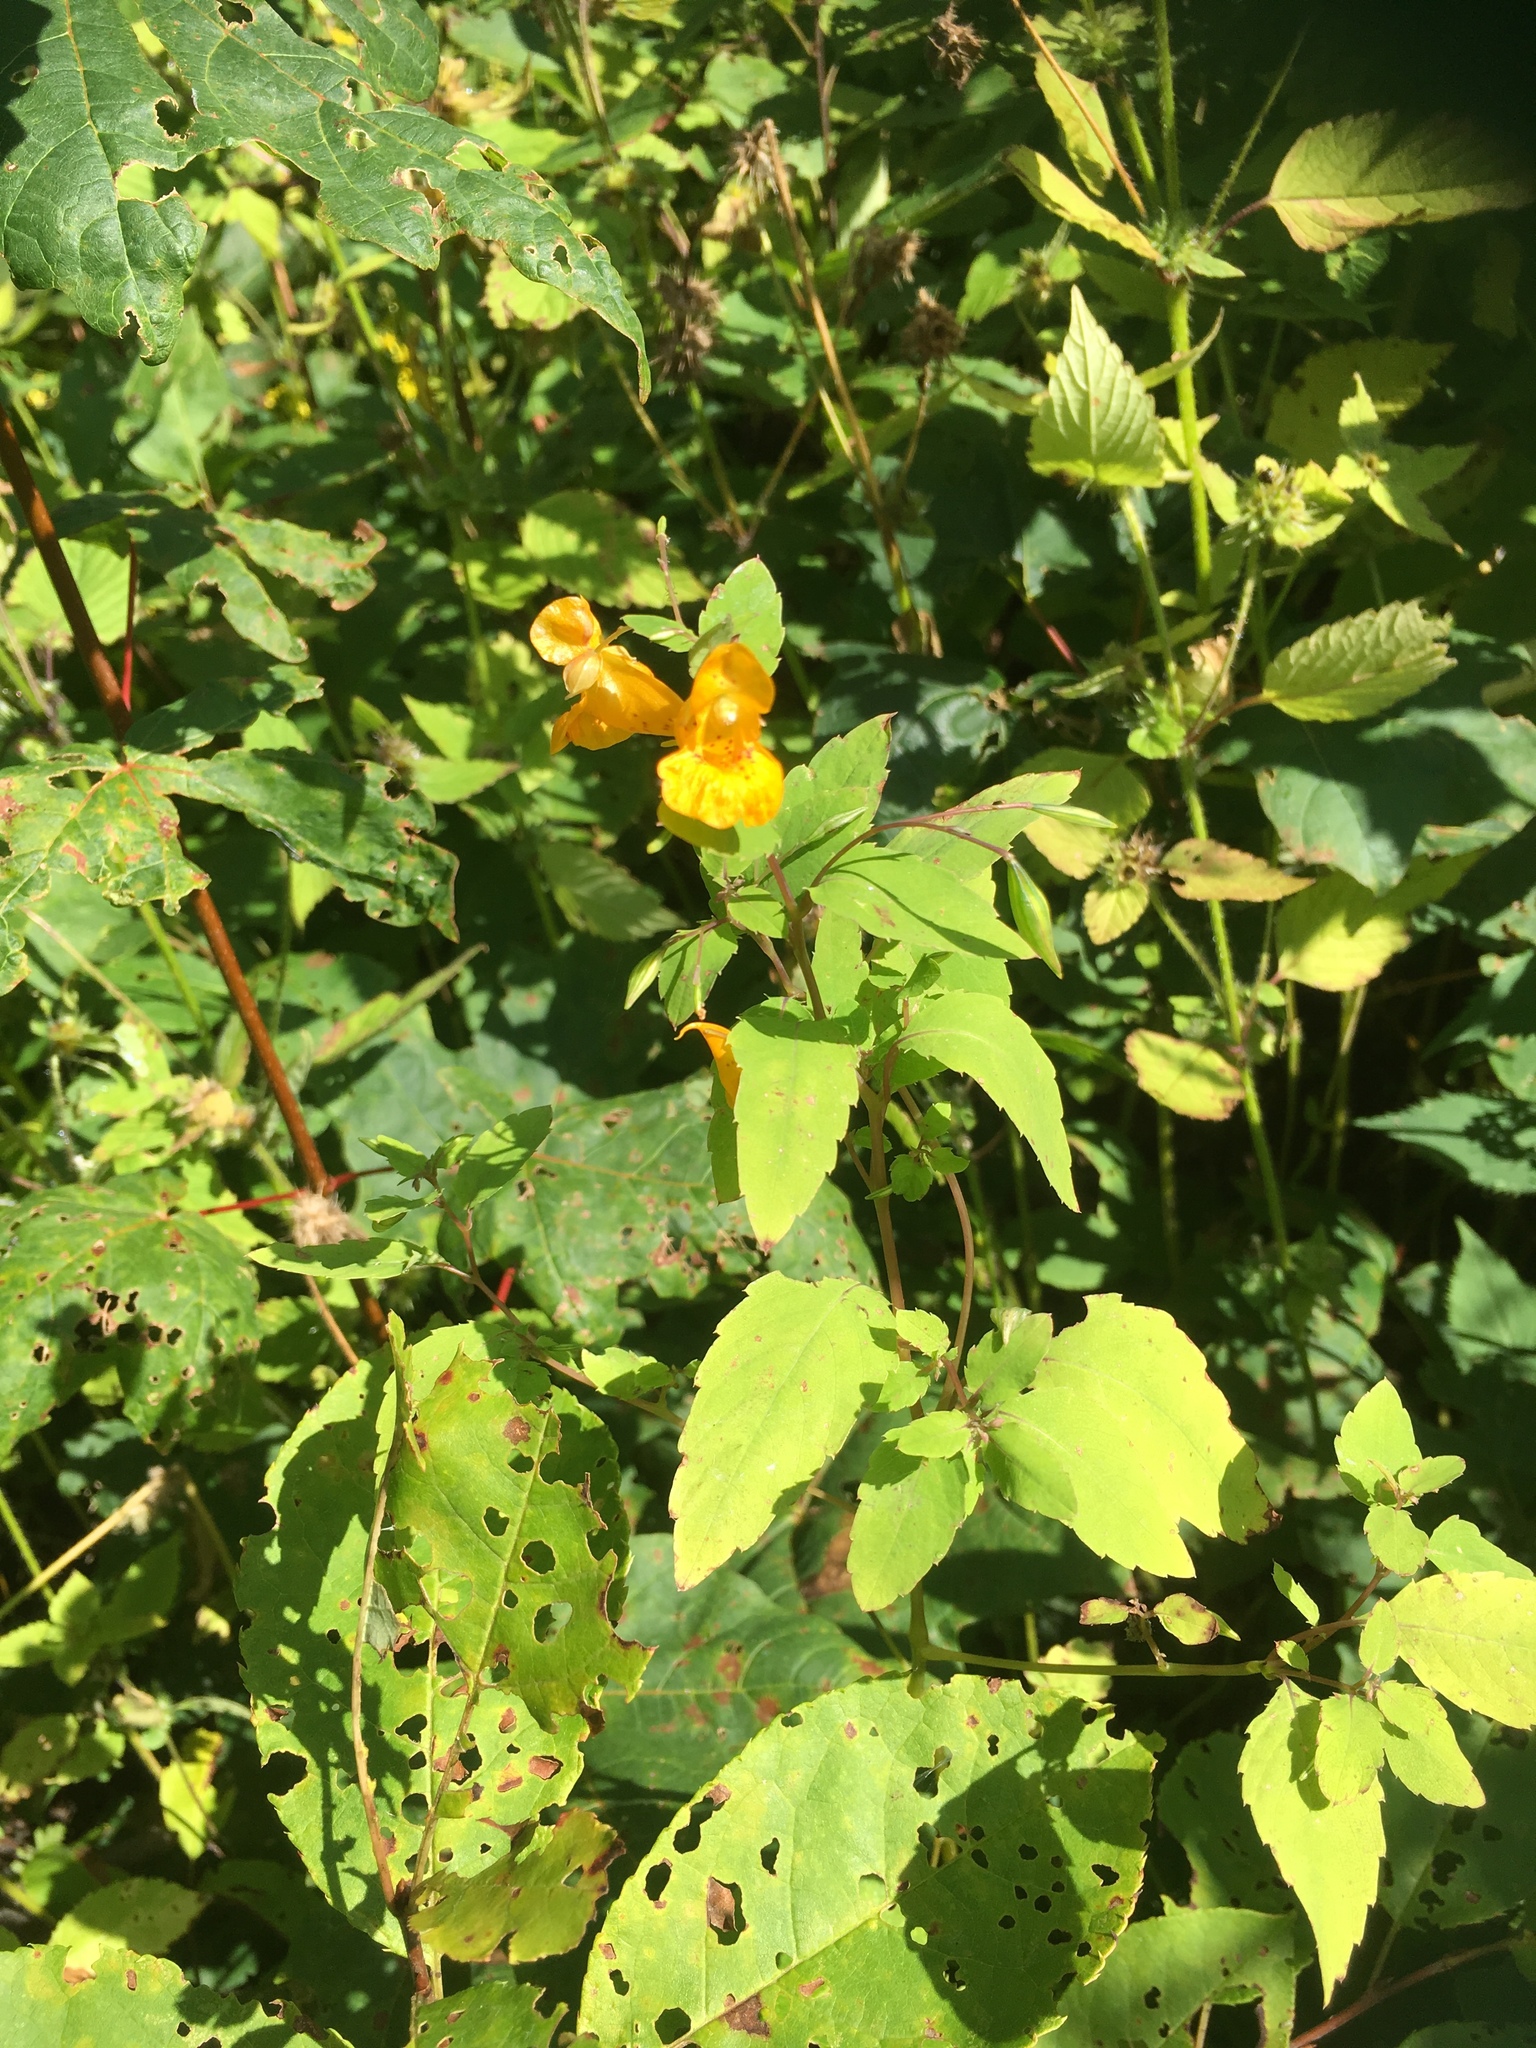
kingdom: Plantae
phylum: Tracheophyta
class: Magnoliopsida
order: Ericales
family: Balsaminaceae
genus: Impatiens
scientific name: Impatiens capensis
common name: Orange balsam
